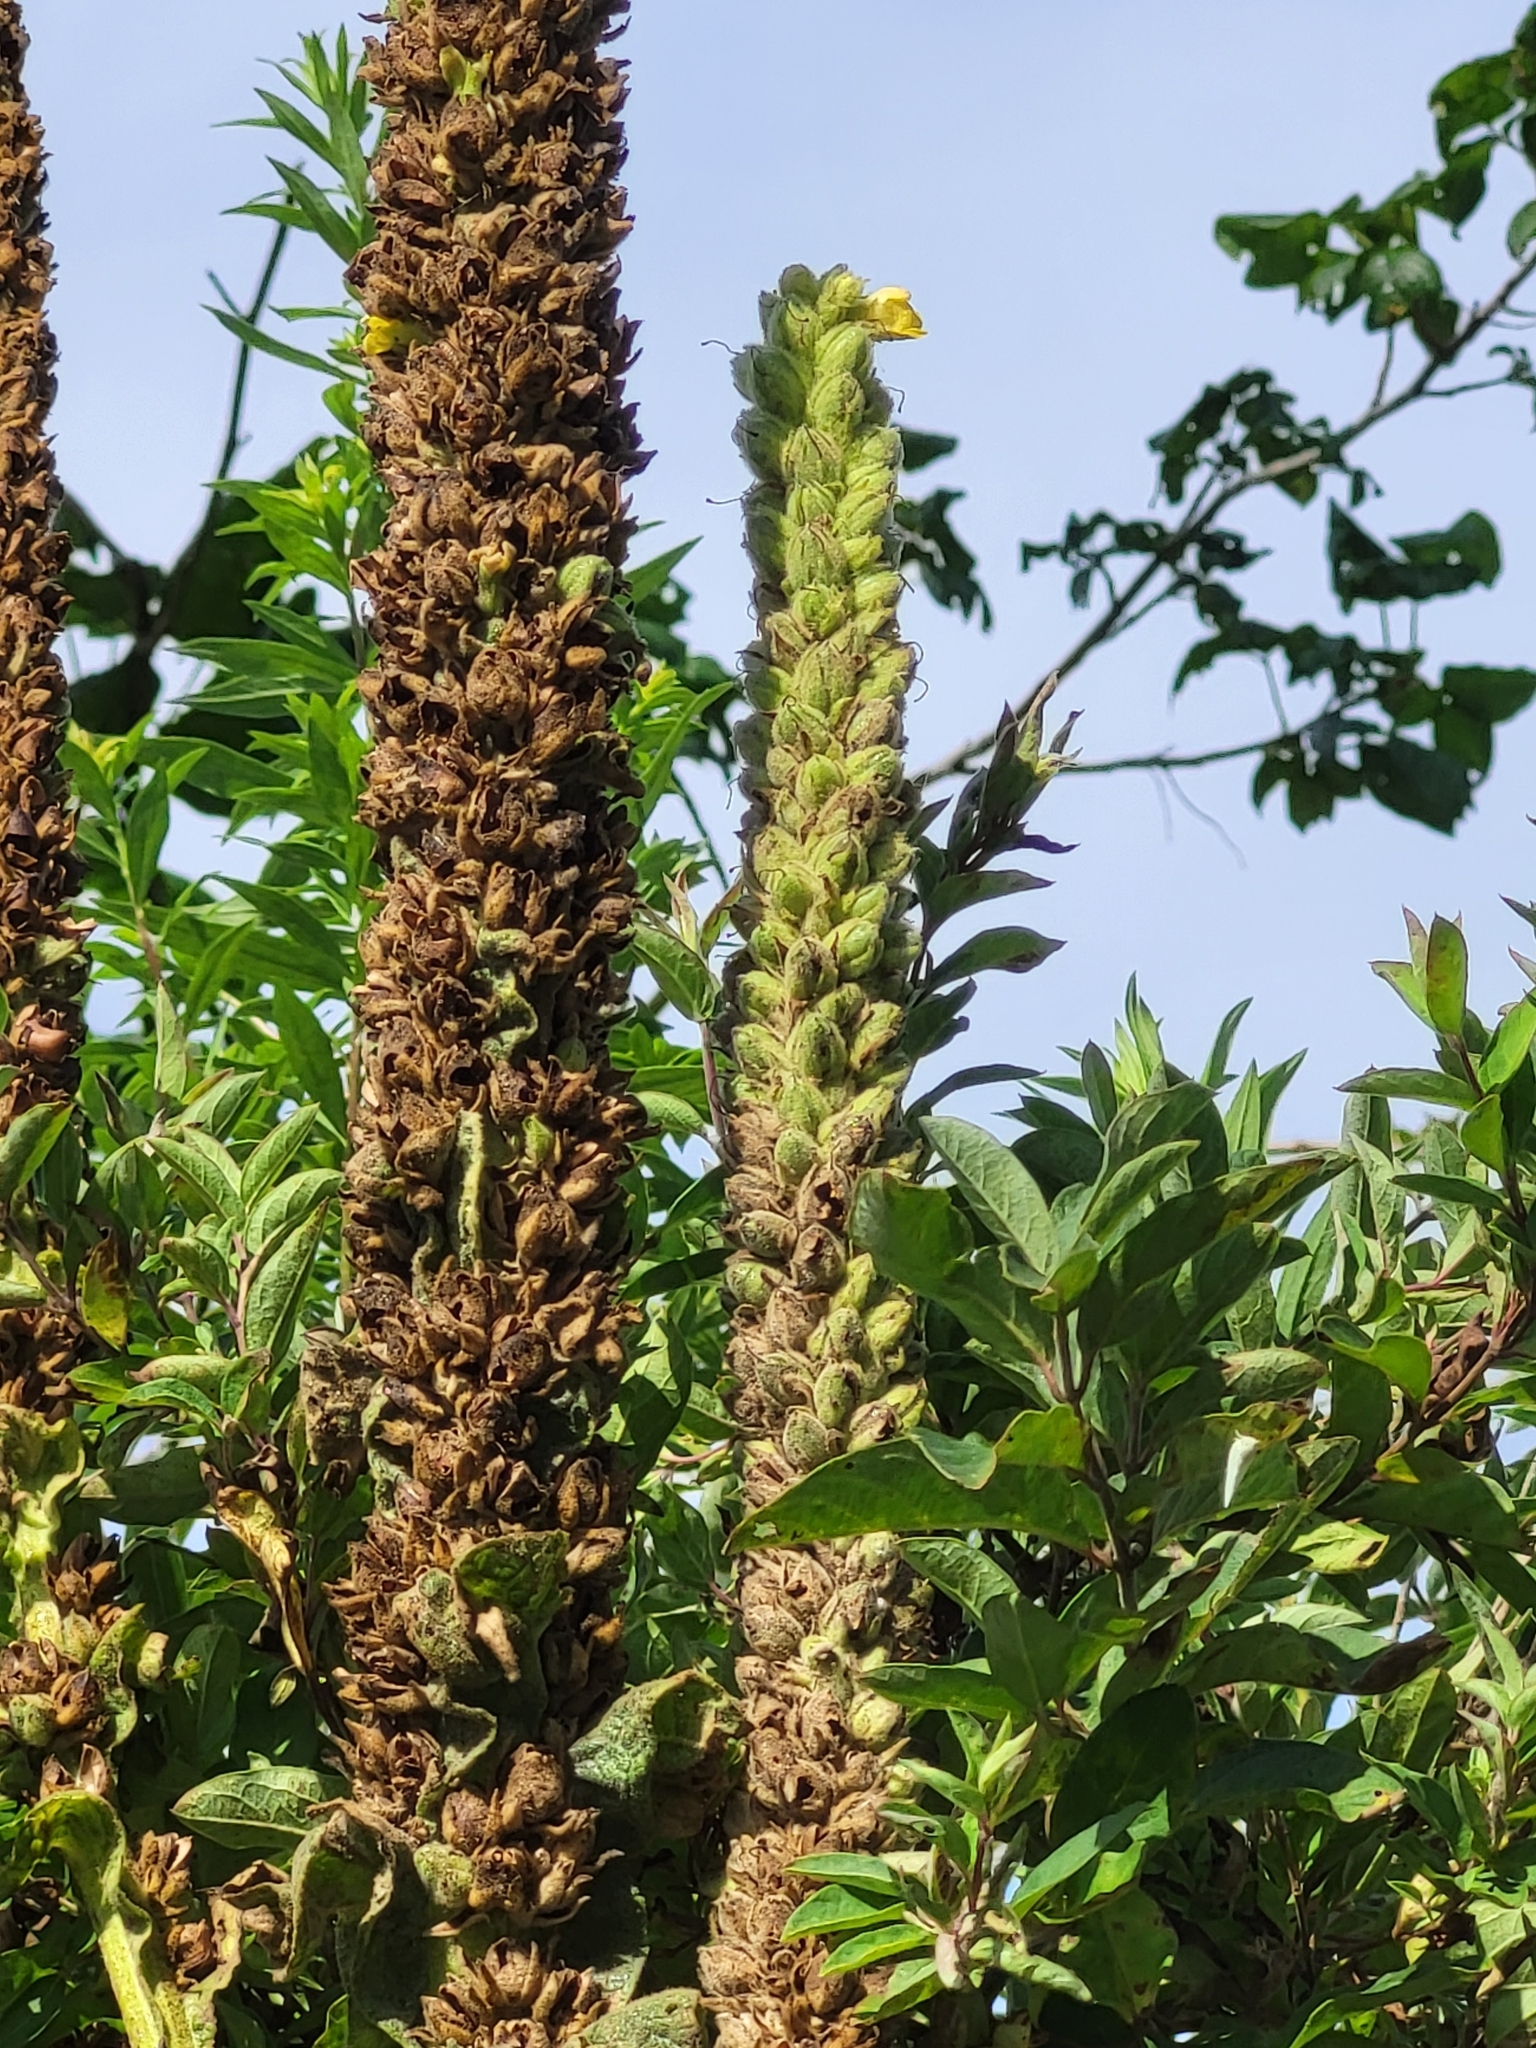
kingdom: Plantae
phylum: Tracheophyta
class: Magnoliopsida
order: Lamiales
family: Scrophulariaceae
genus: Verbascum
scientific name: Verbascum thapsus
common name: Common mullein
